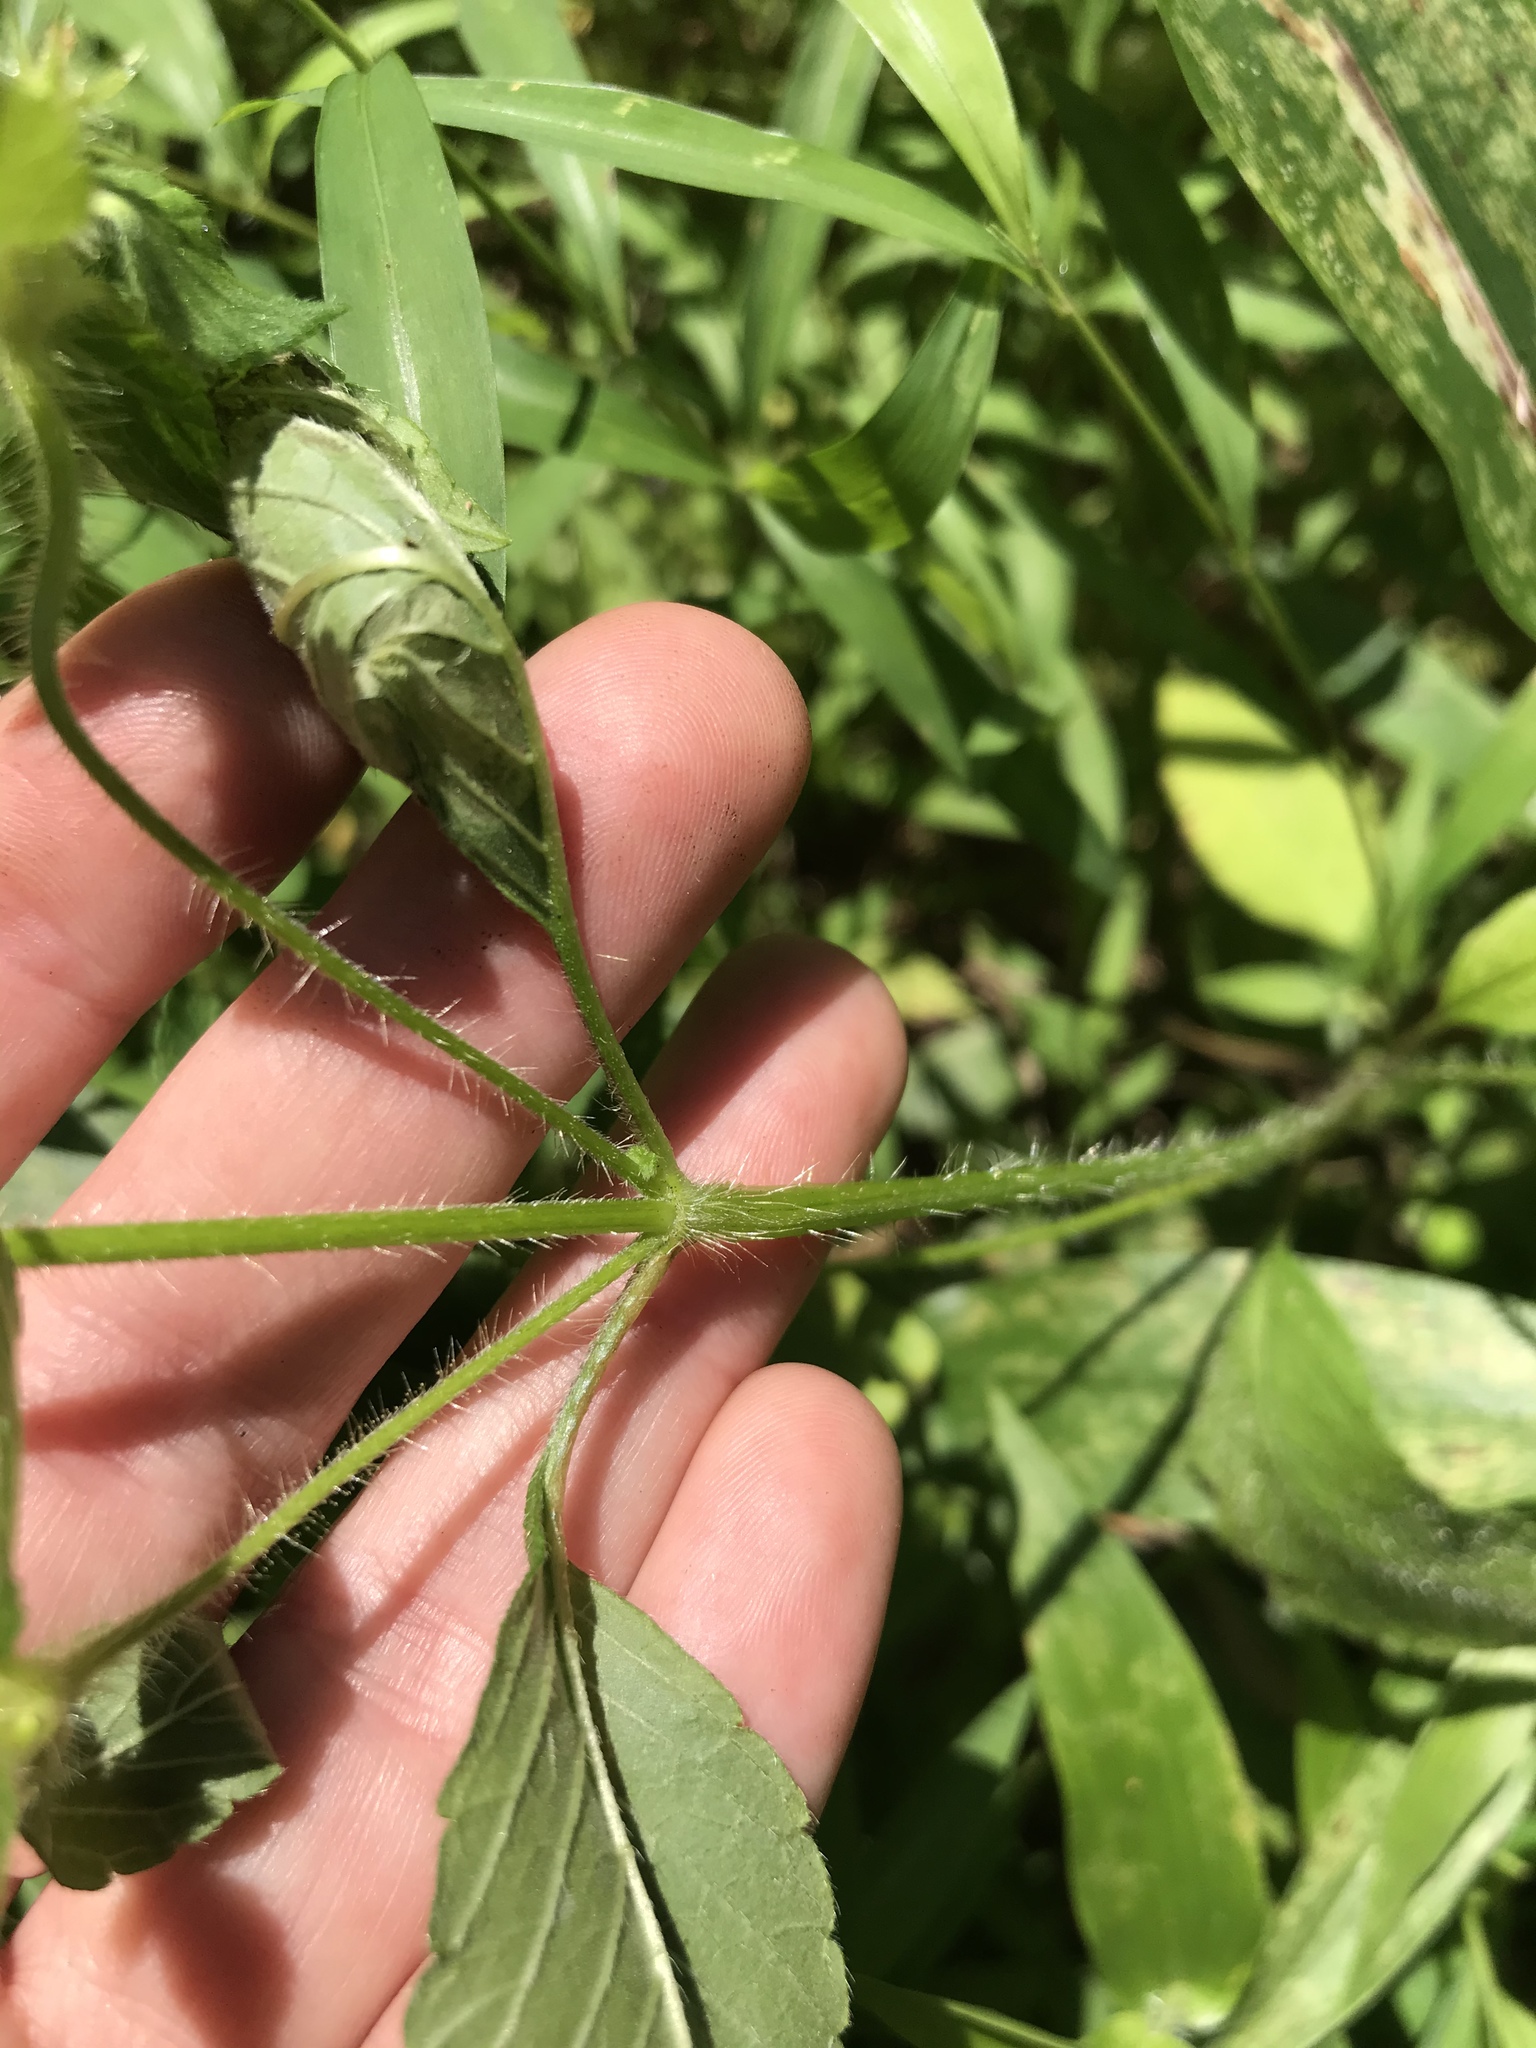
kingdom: Plantae
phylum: Tracheophyta
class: Magnoliopsida
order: Lamiales
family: Lamiaceae
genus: Galeopsis
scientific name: Galeopsis bifida
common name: Bifid hemp-nettle
